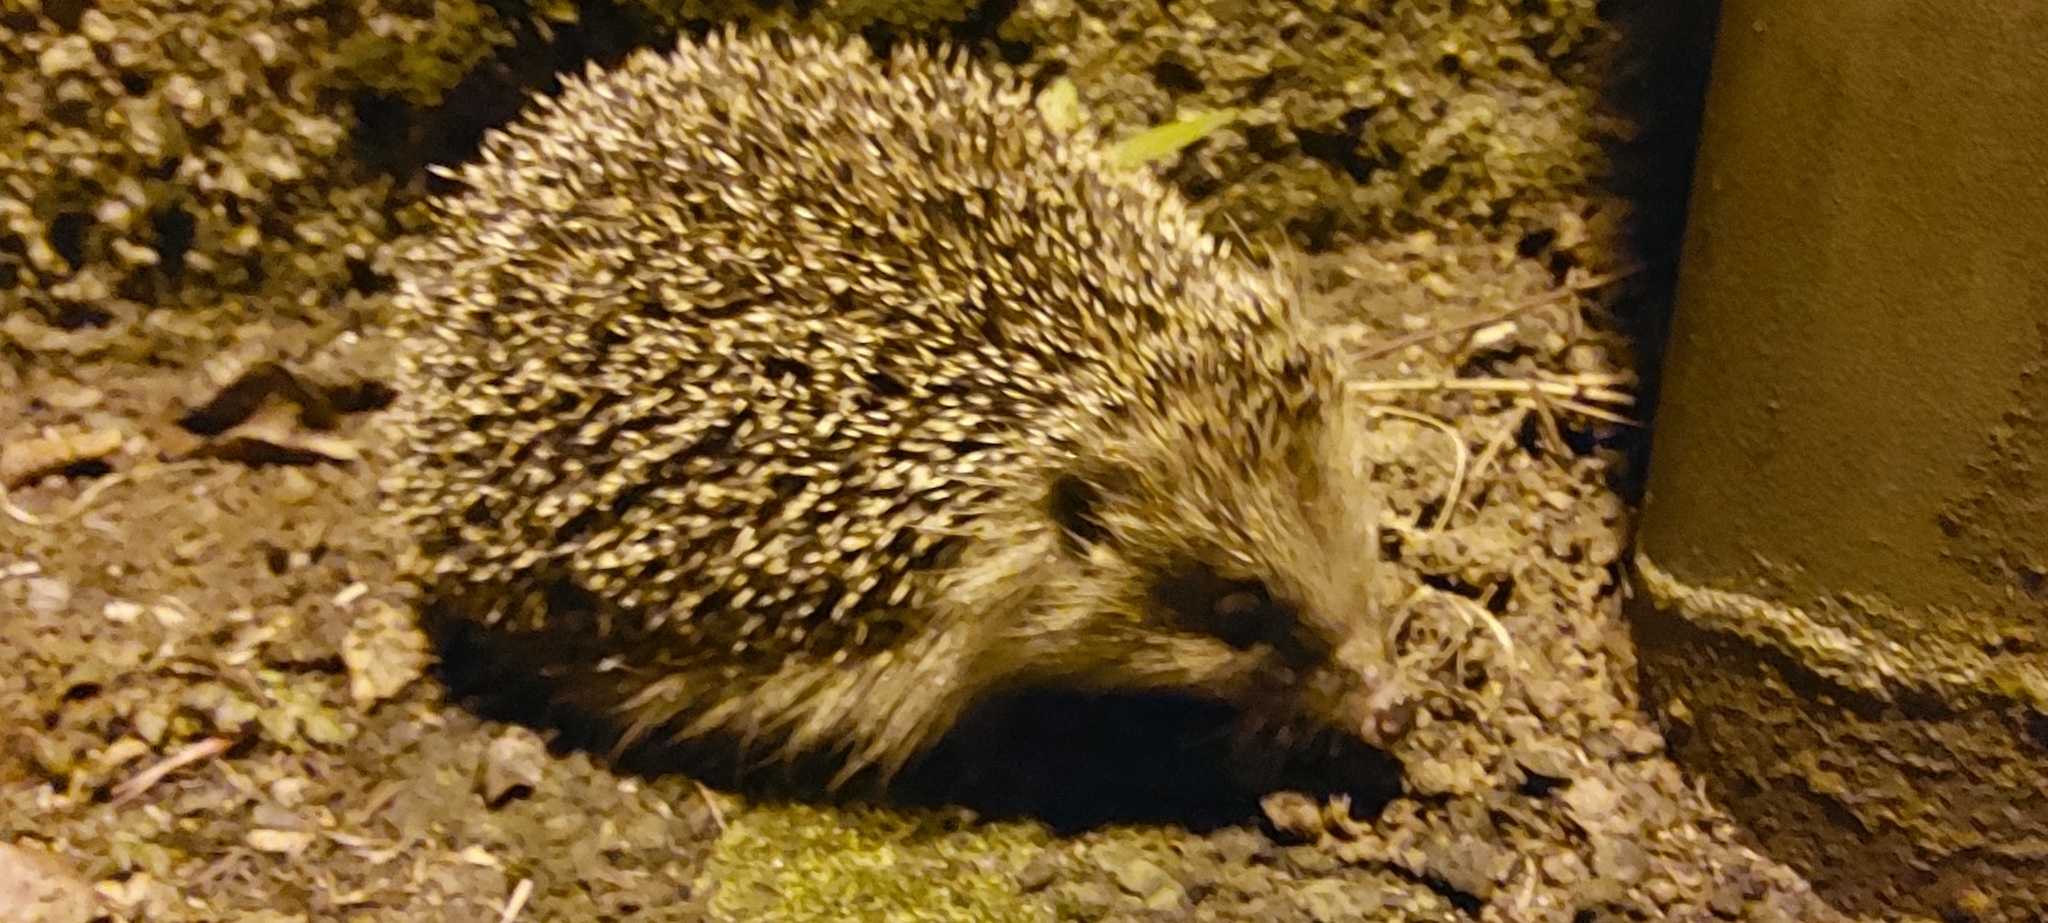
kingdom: Animalia
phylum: Chordata
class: Mammalia
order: Erinaceomorpha
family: Erinaceidae
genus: Erinaceus
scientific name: Erinaceus europaeus
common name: West european hedgehog
